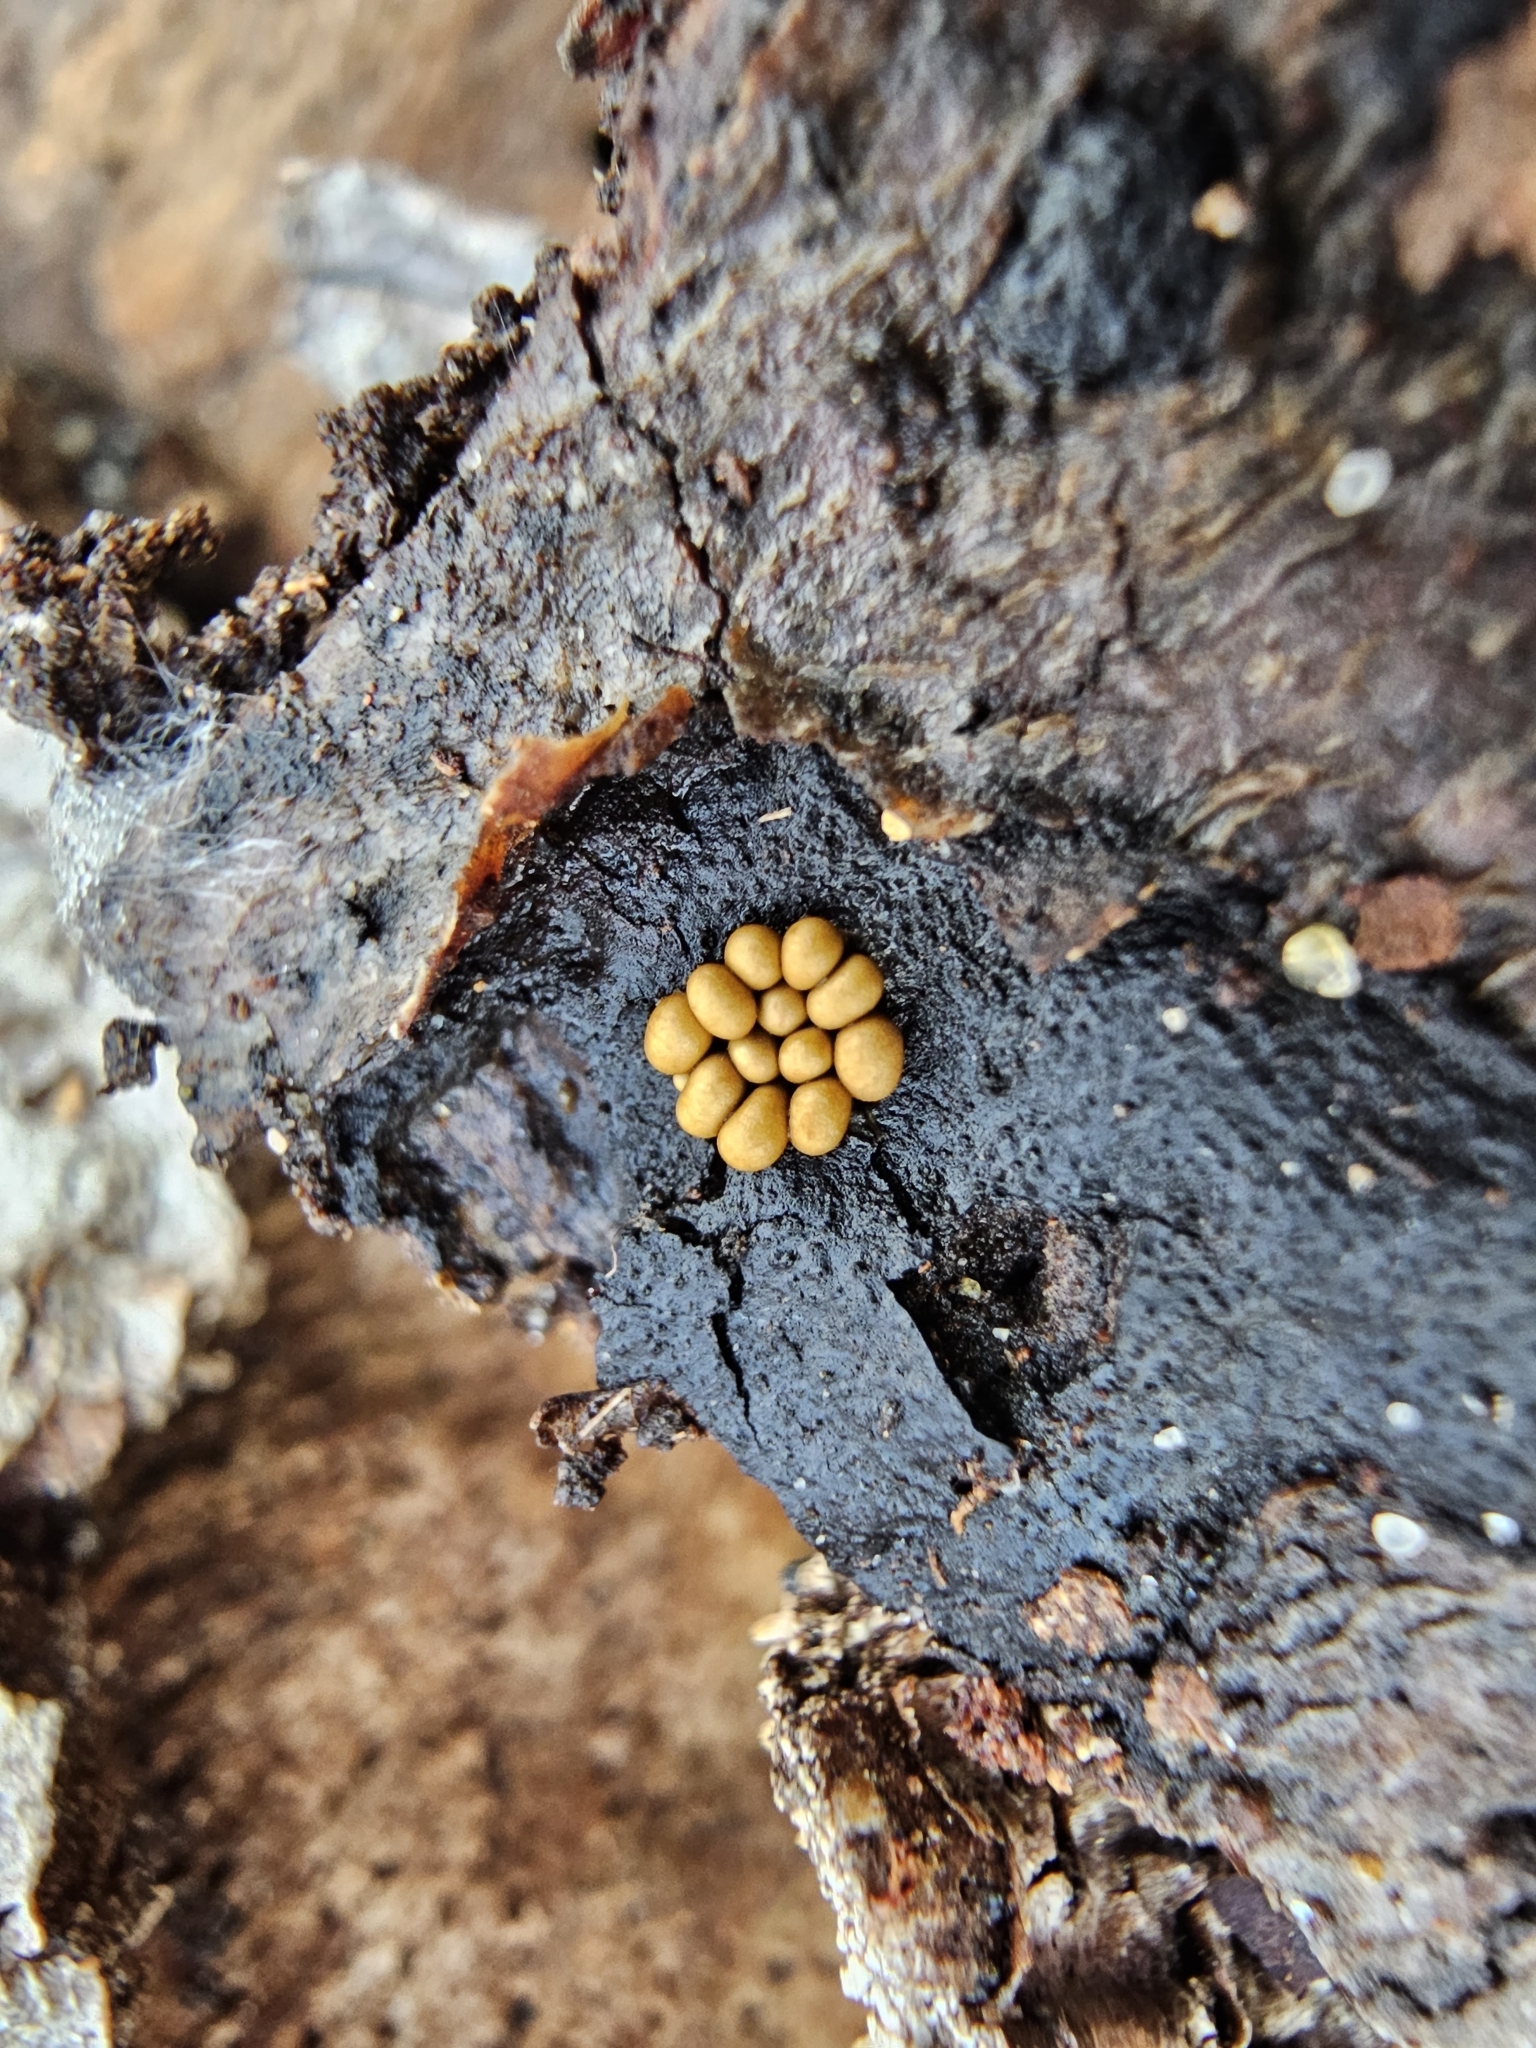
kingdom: Protozoa
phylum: Mycetozoa
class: Myxomycetes
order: Trichiales
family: Trichiaceae
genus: Trichia
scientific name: Trichia varia
